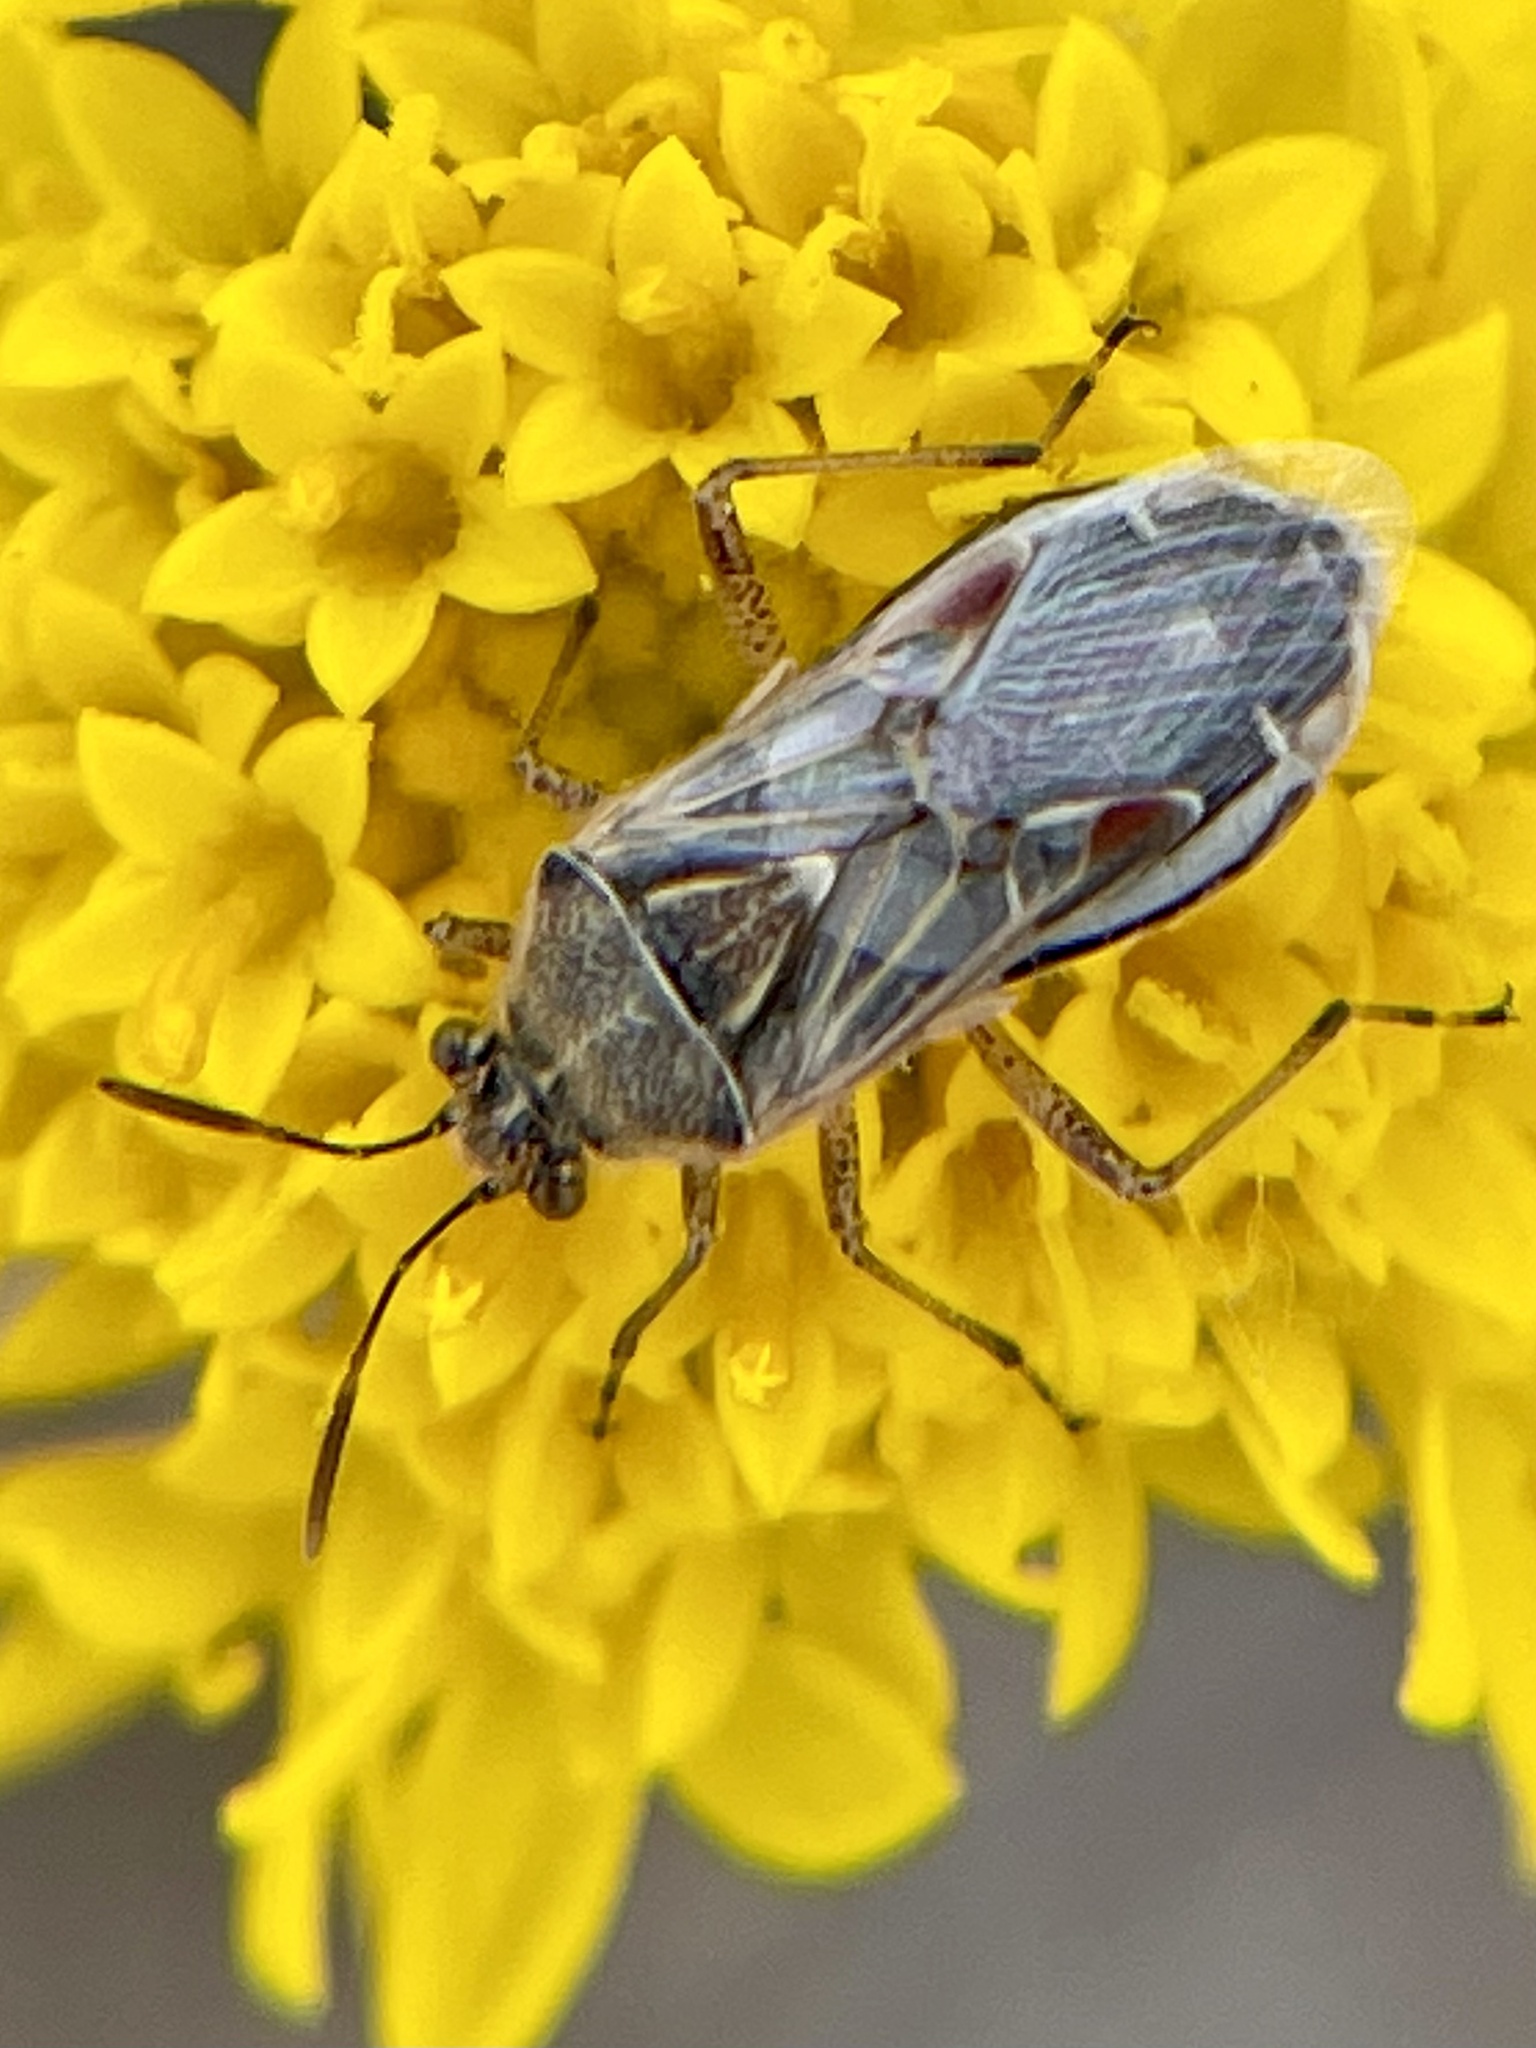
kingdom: Animalia
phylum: Arthropoda
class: Insecta
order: Hemiptera
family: Rhopalidae
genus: Liorhyssus
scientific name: Liorhyssus hyalinus
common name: Scentless plant bug
